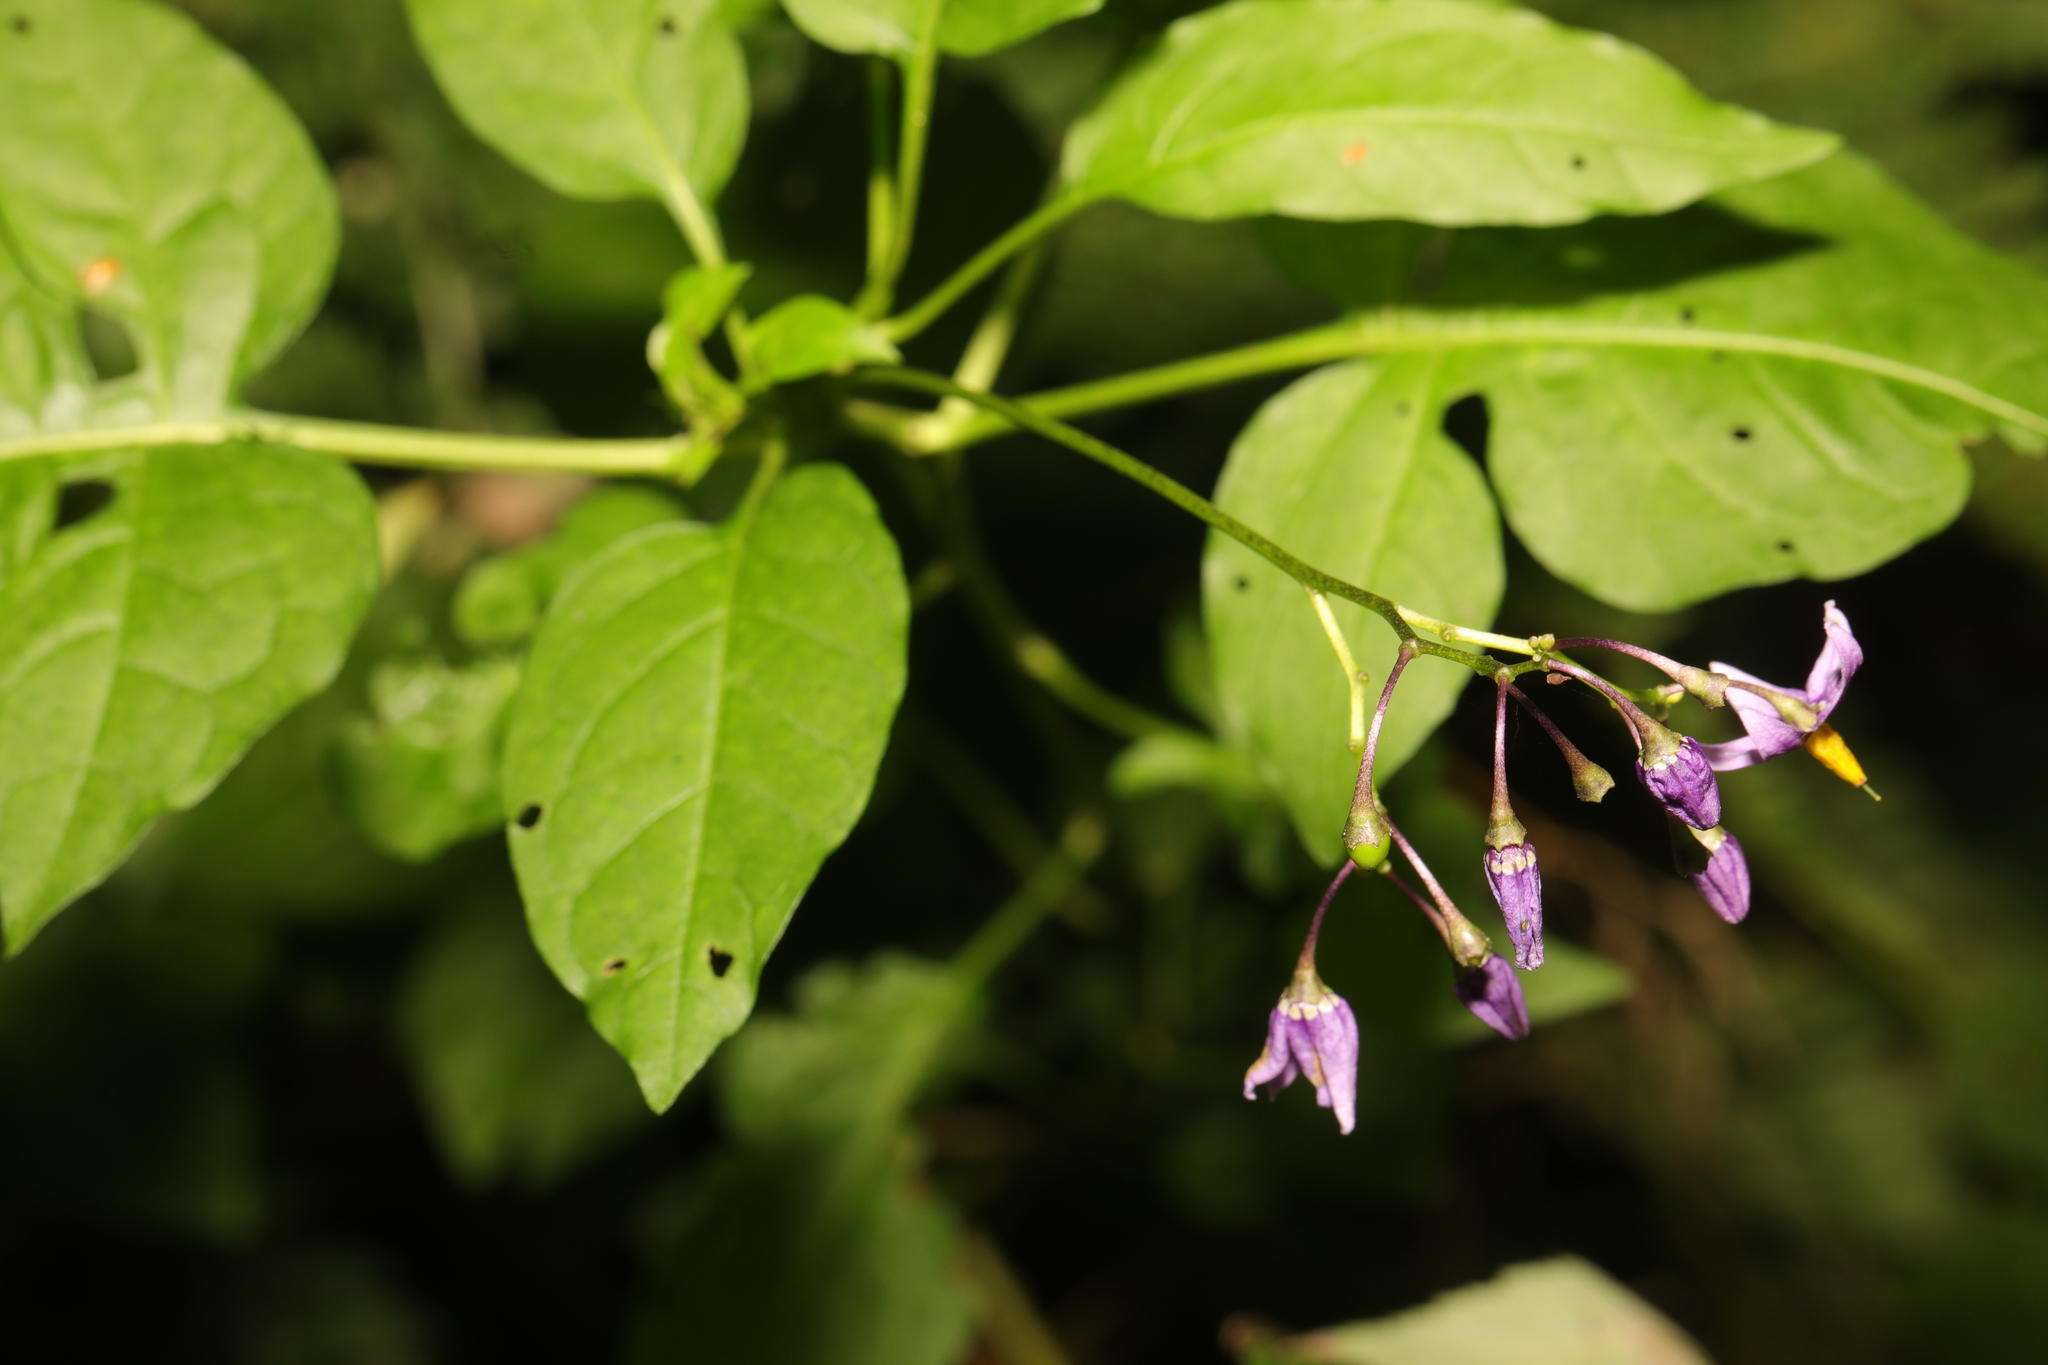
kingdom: Plantae
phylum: Tracheophyta
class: Magnoliopsida
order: Solanales
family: Solanaceae
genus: Solanum
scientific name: Solanum dulcamara
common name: Climbing nightshade
